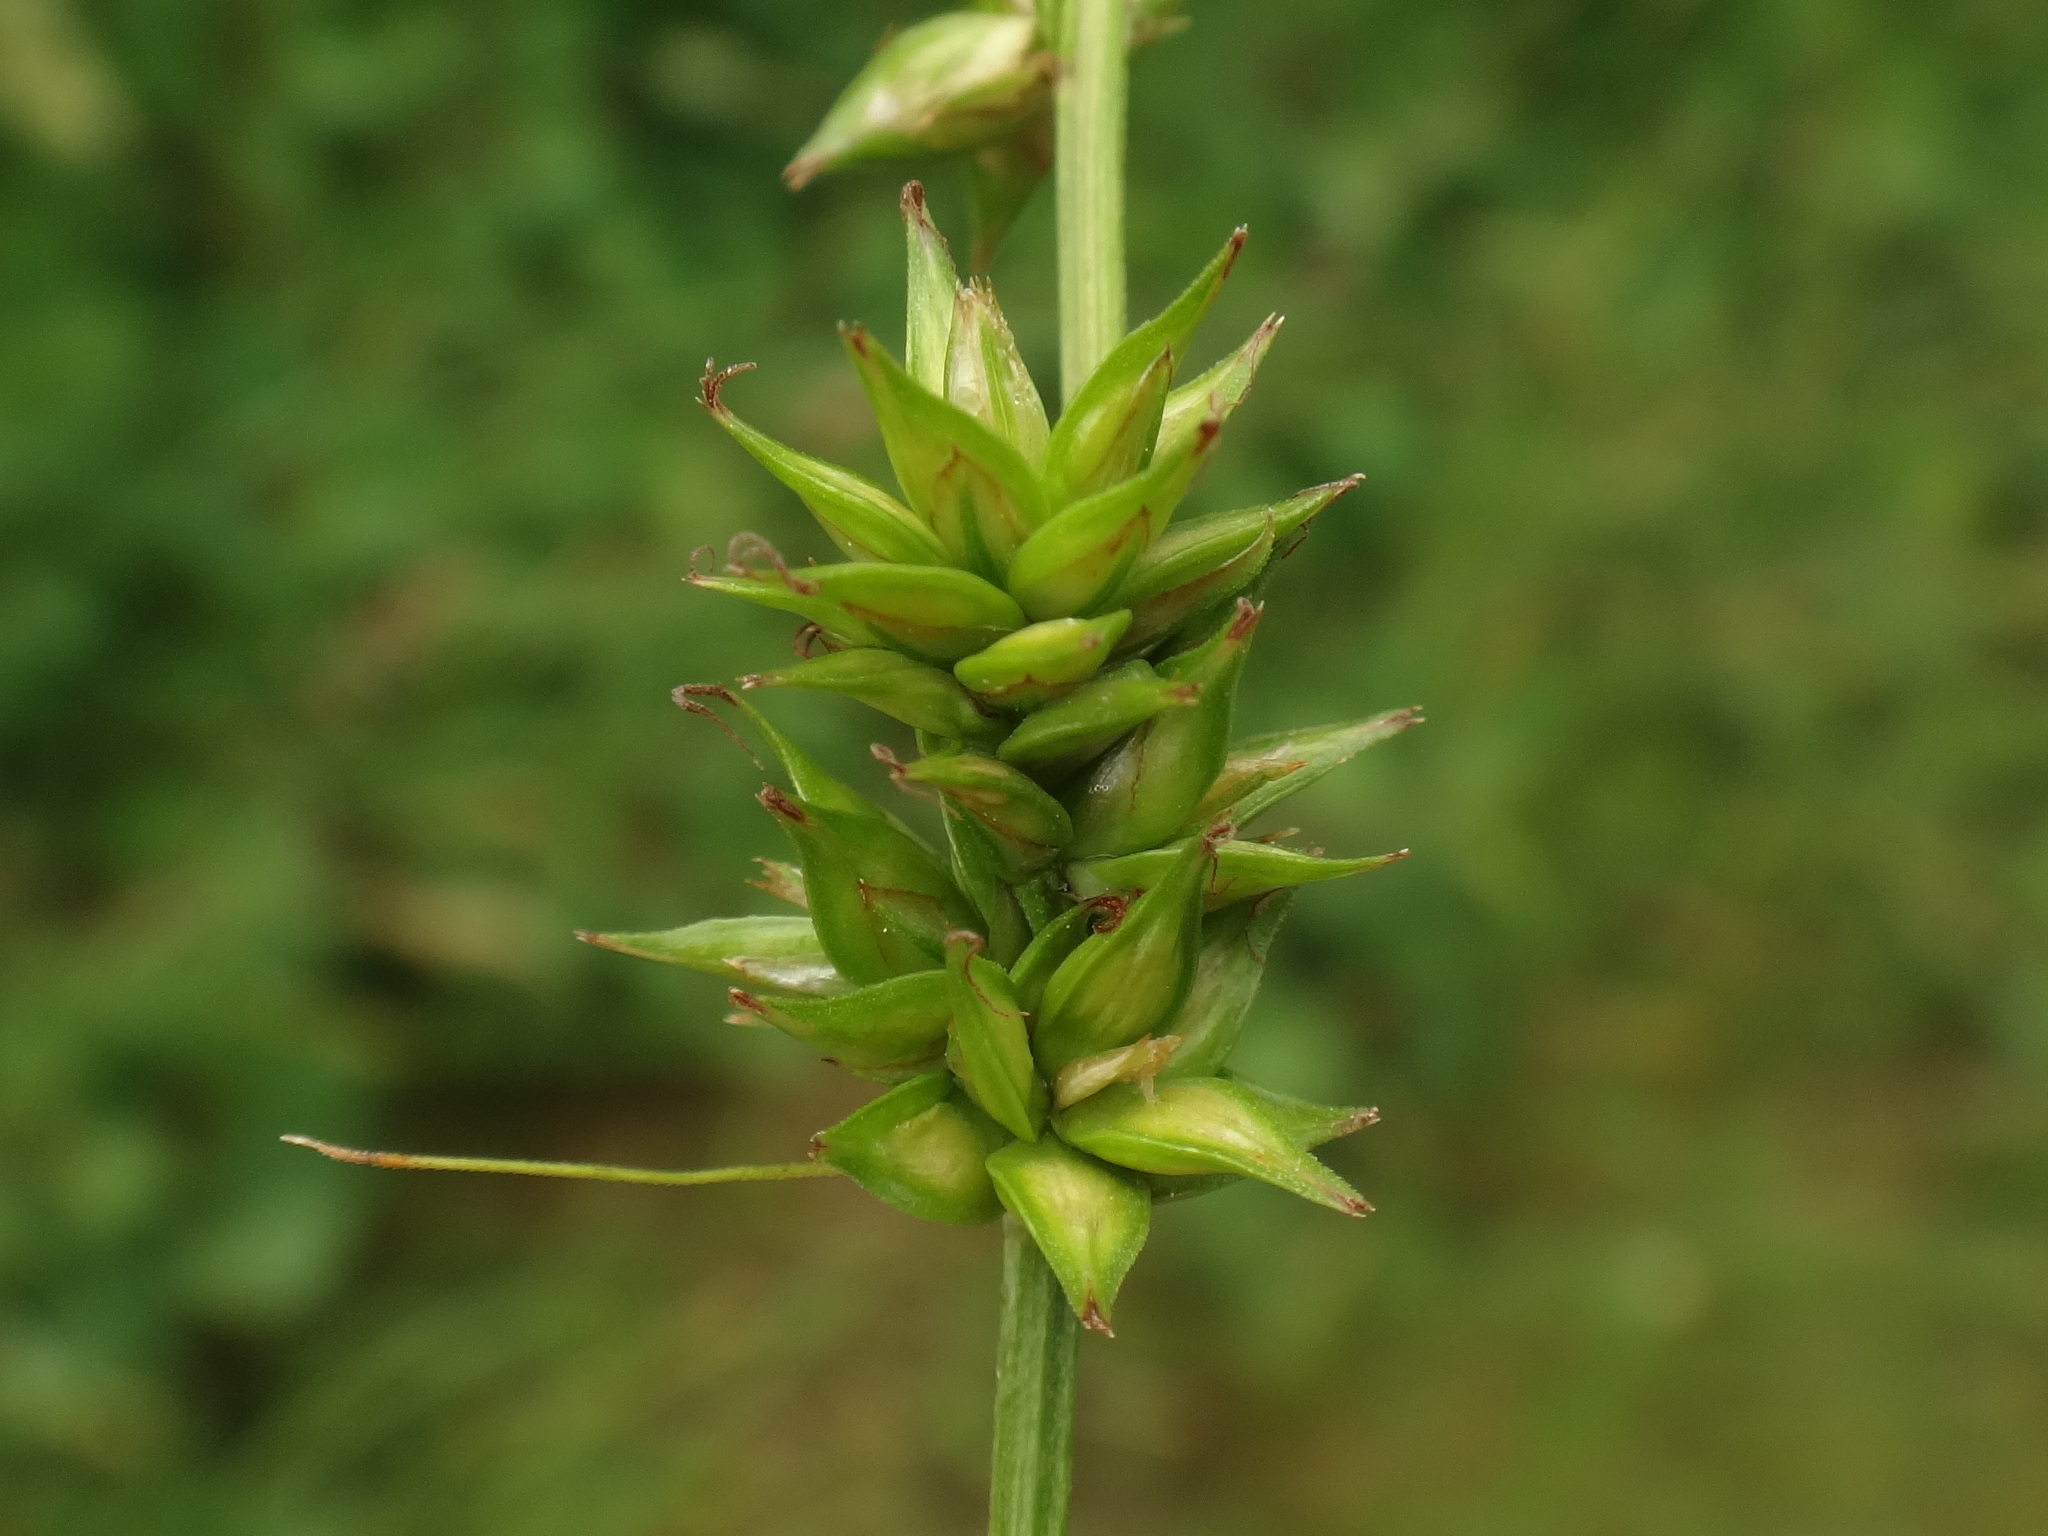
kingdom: Plantae
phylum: Tracheophyta
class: Liliopsida
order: Poales
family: Cyperaceae
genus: Carex
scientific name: Carex divulsa
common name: Grassland sedge
